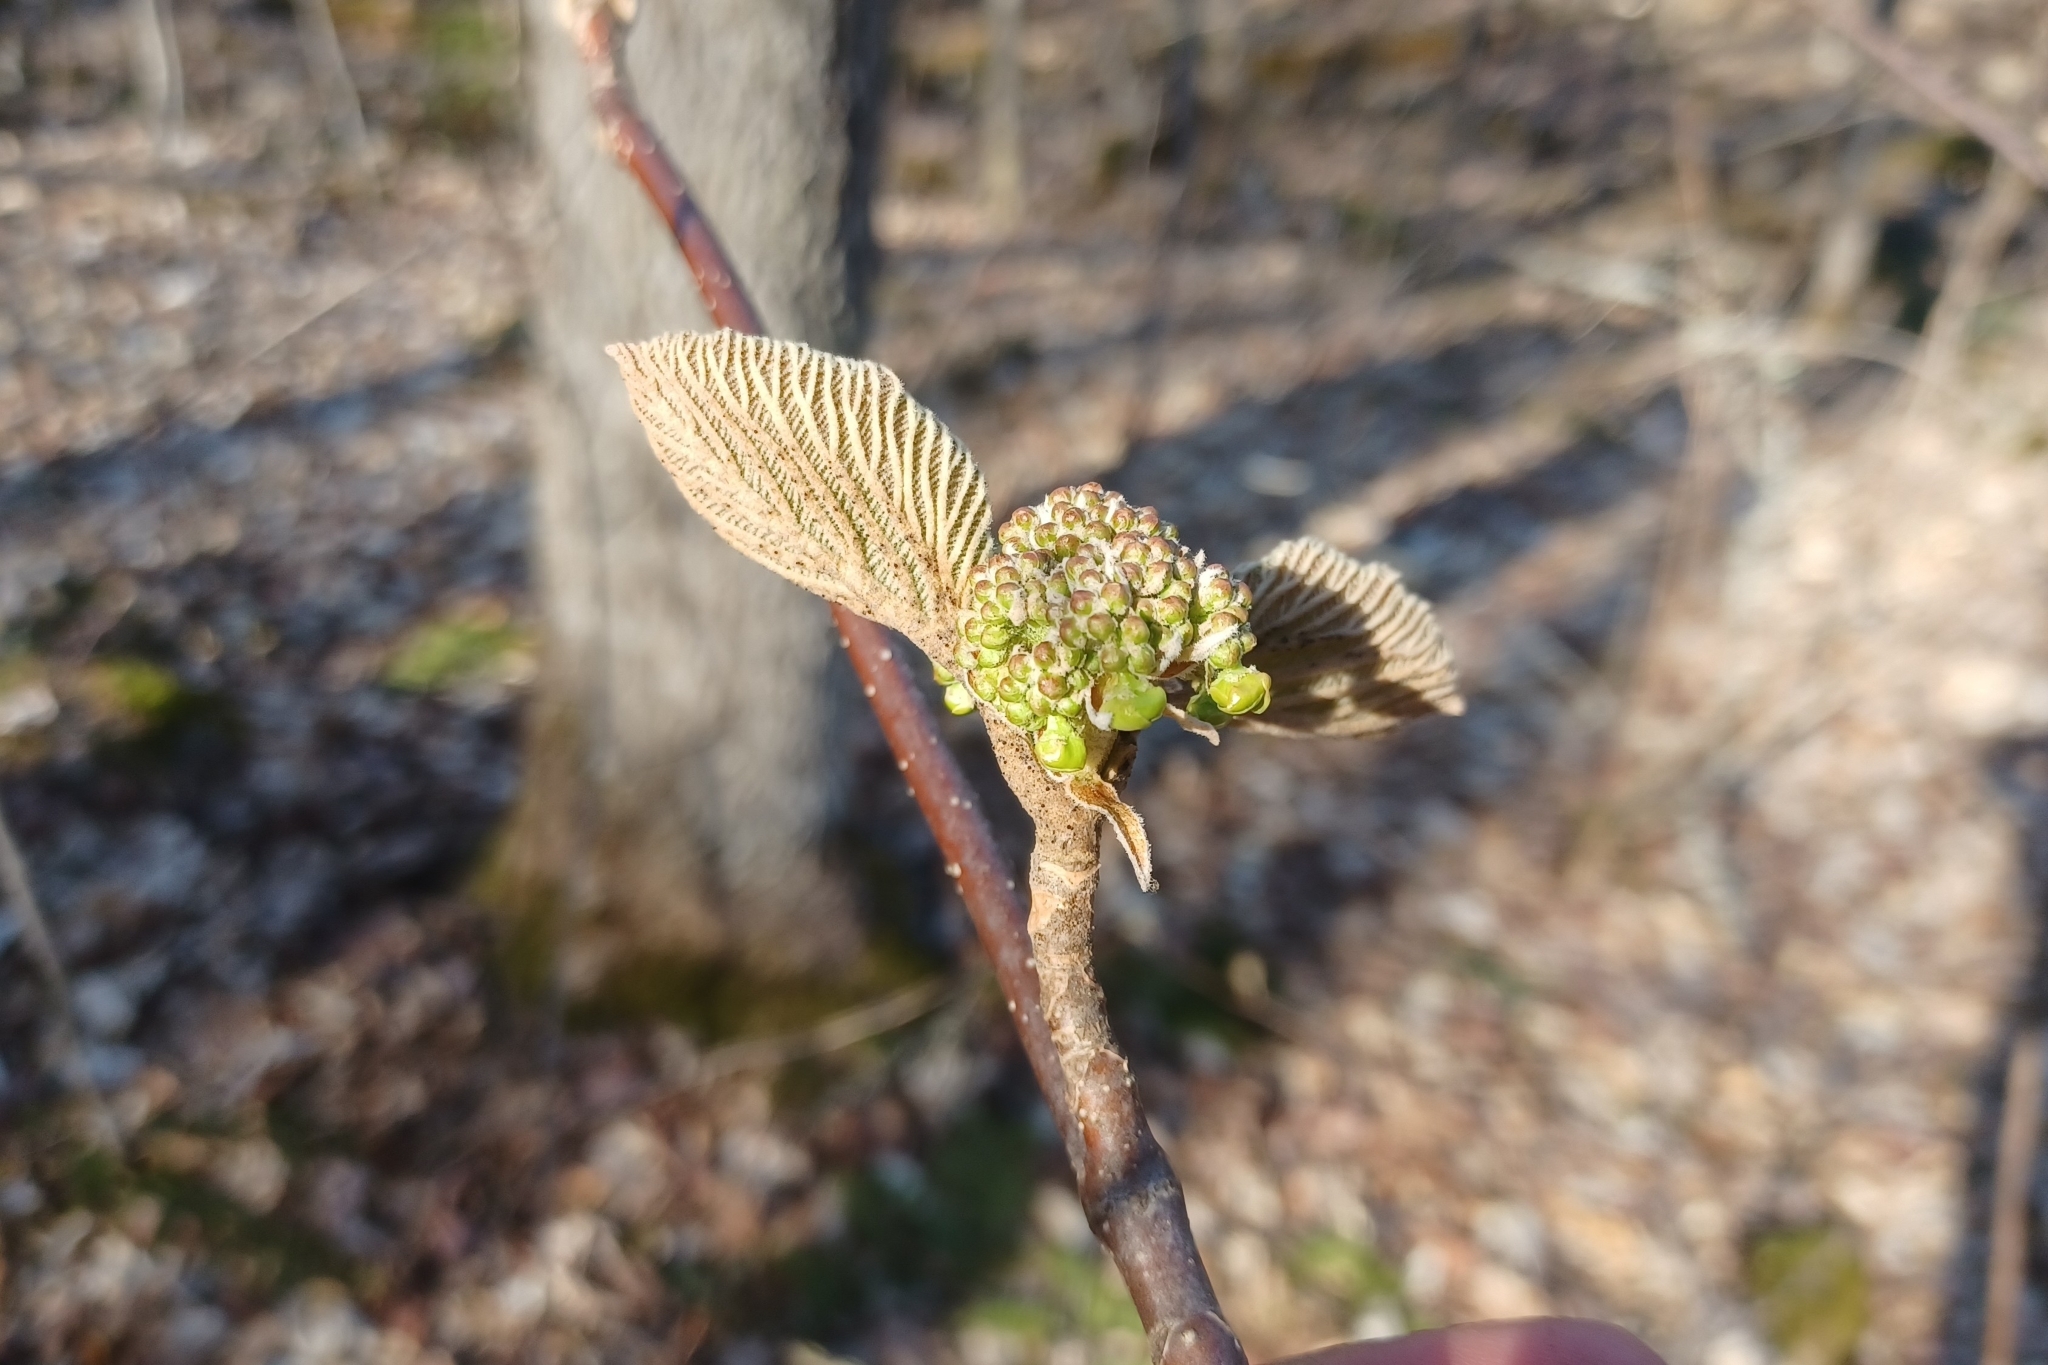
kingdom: Plantae
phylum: Tracheophyta
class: Magnoliopsida
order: Dipsacales
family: Viburnaceae
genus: Viburnum
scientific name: Viburnum lantanoides
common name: Hobblebush
